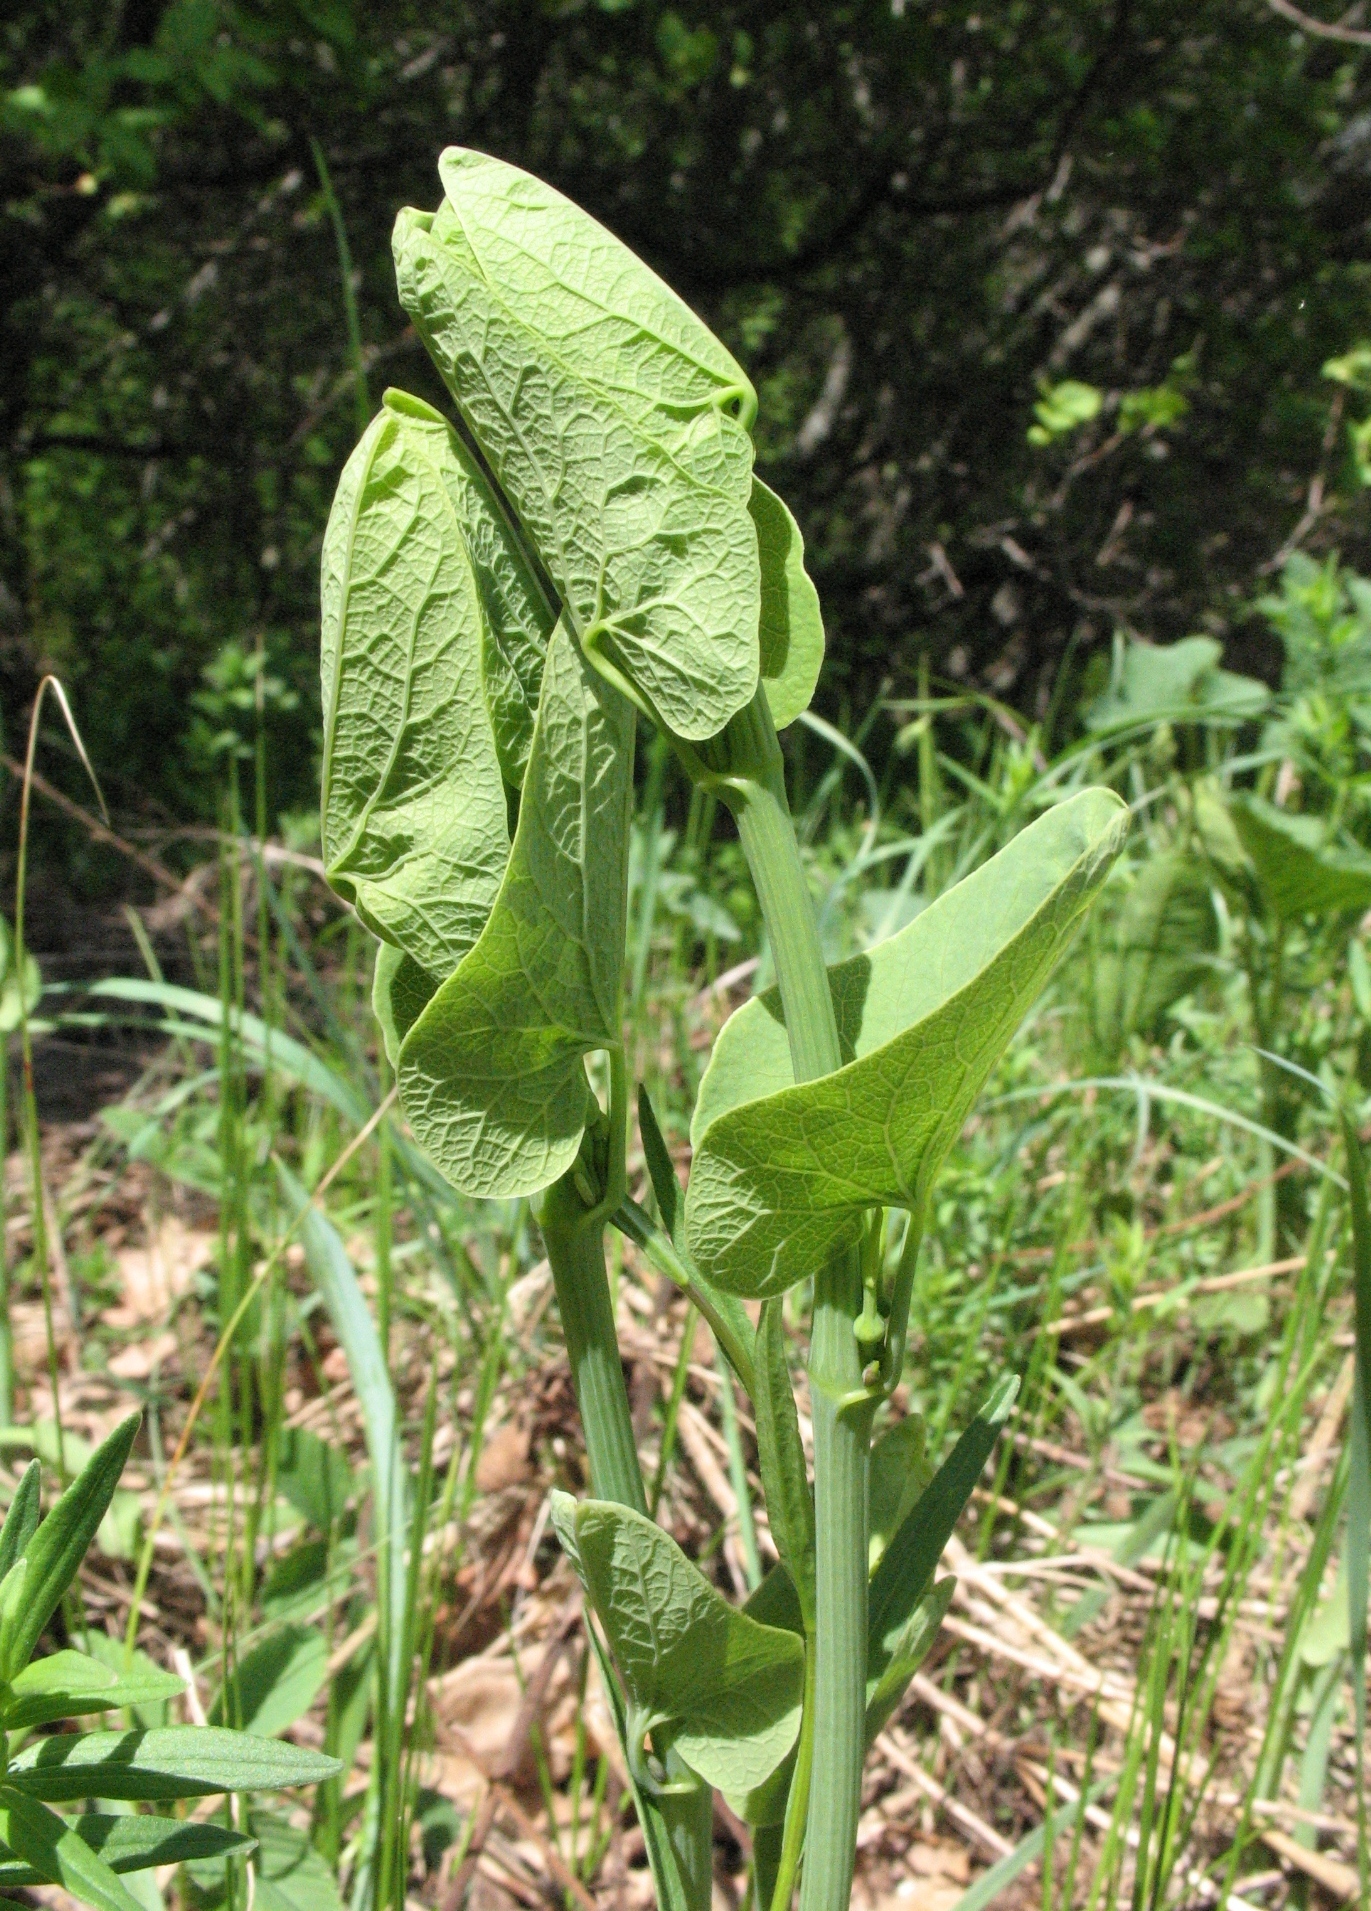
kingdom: Plantae
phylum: Tracheophyta
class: Magnoliopsida
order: Piperales
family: Aristolochiaceae
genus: Aristolochia
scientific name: Aristolochia clematitis
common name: Birthwort
